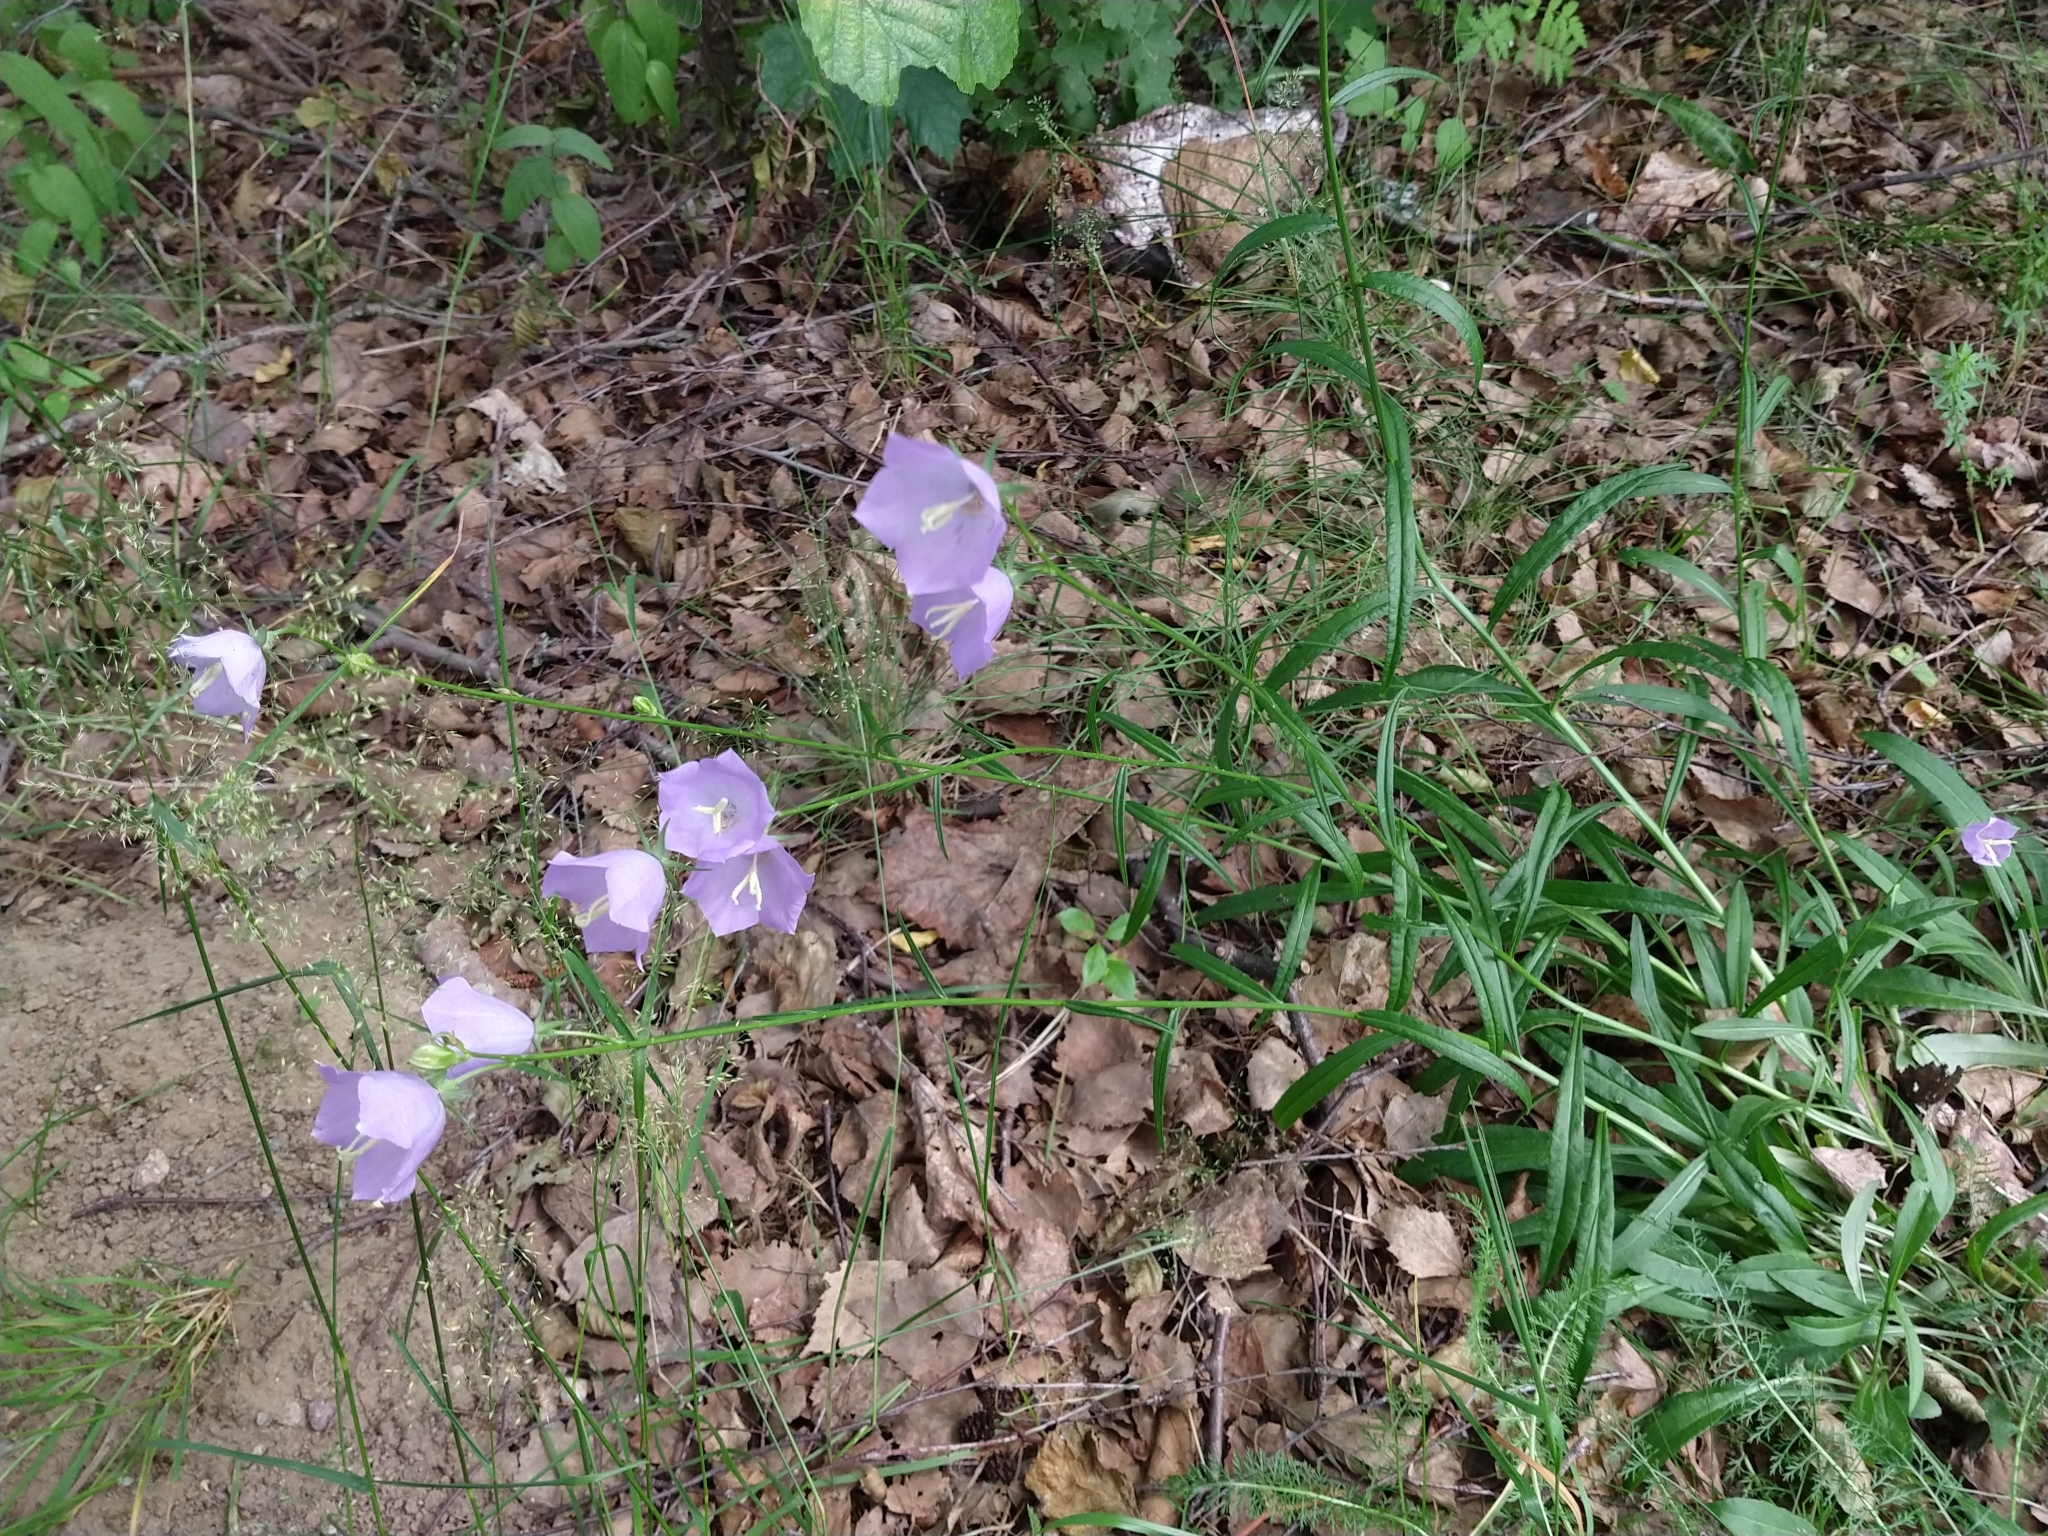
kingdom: Plantae
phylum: Tracheophyta
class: Magnoliopsida
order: Asterales
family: Campanulaceae
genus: Campanula
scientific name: Campanula persicifolia
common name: Peach-leaved bellflower
